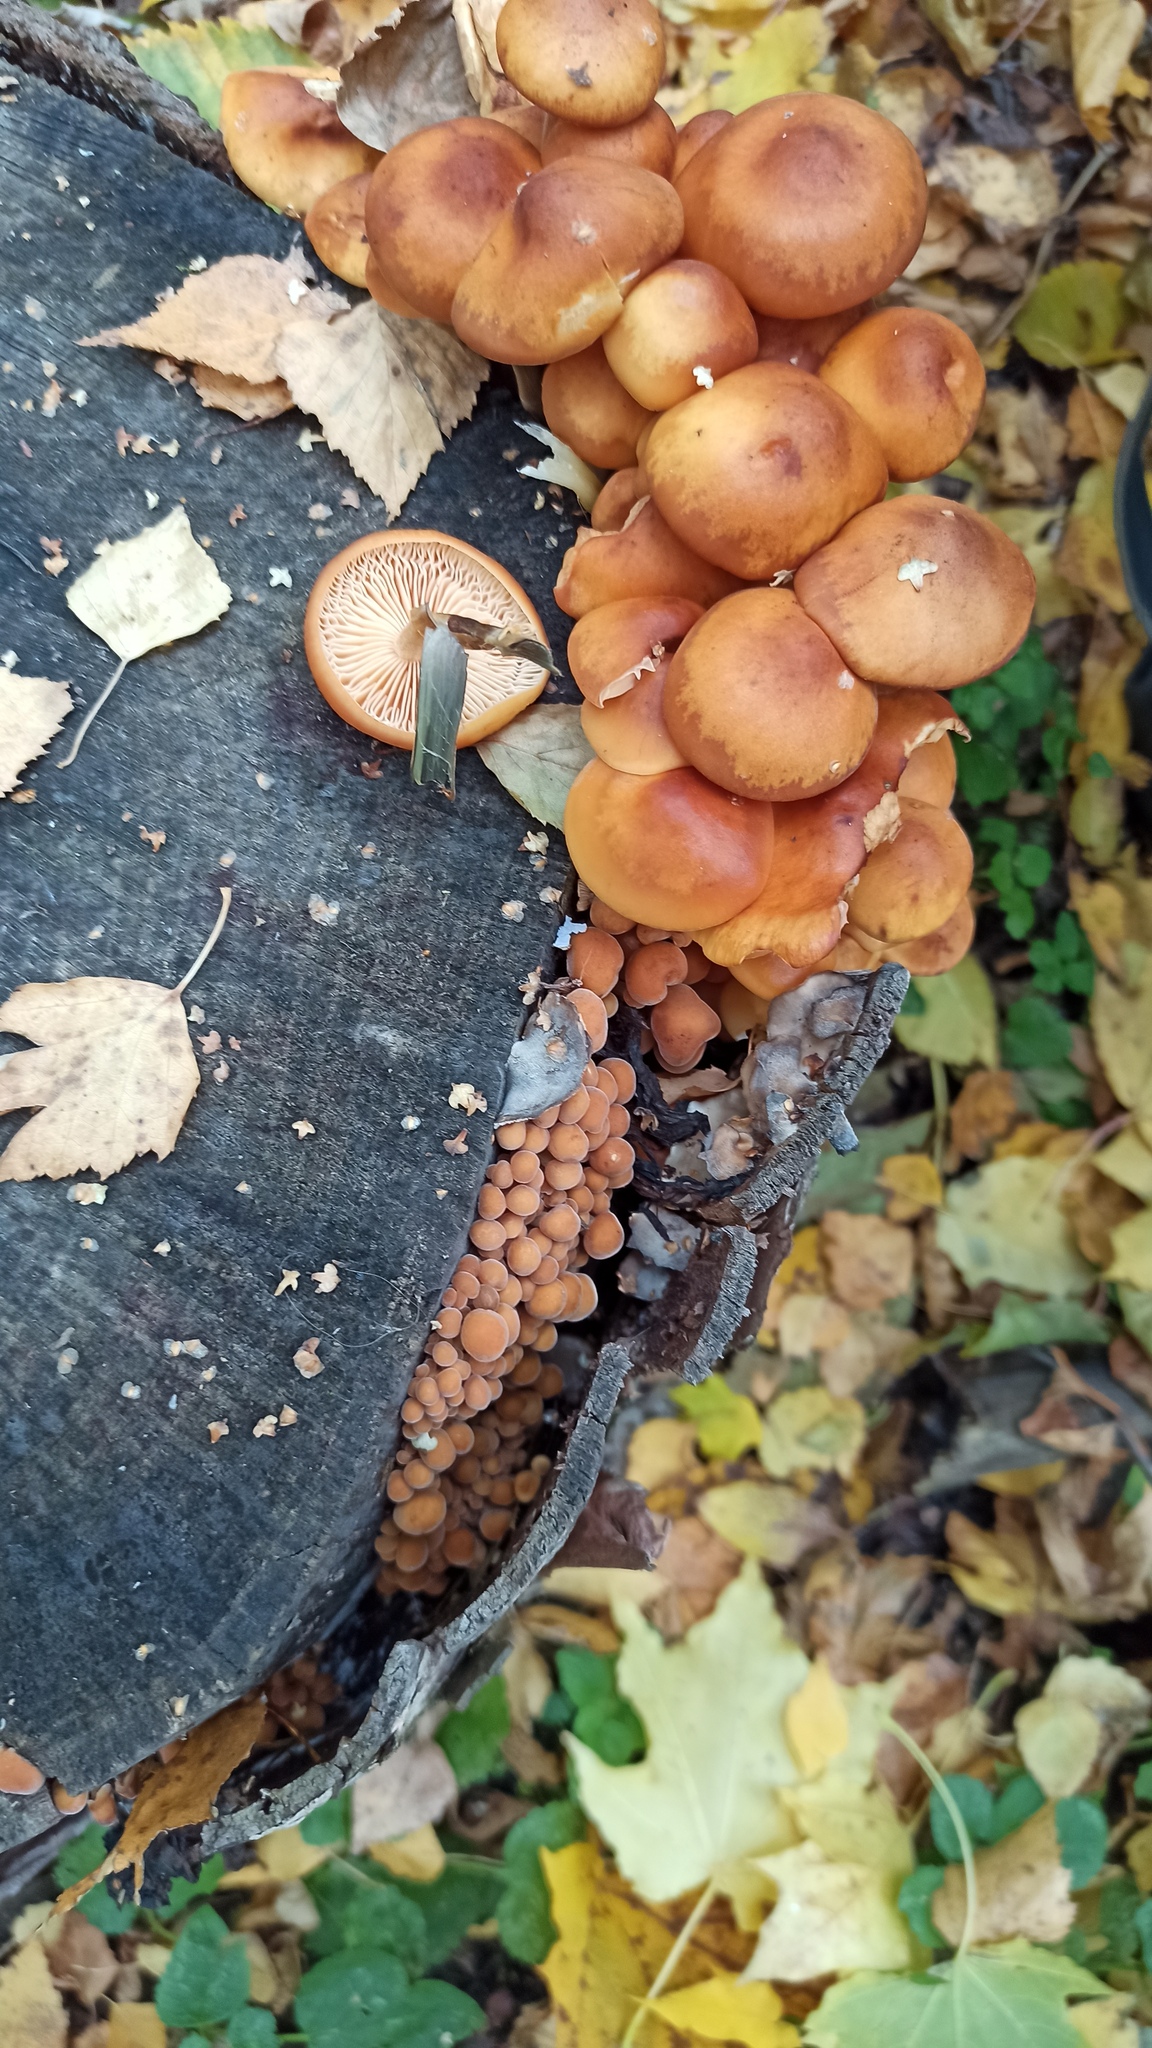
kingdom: Fungi
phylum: Basidiomycota
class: Agaricomycetes
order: Agaricales
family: Physalacriaceae
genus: Flammulina
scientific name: Flammulina
